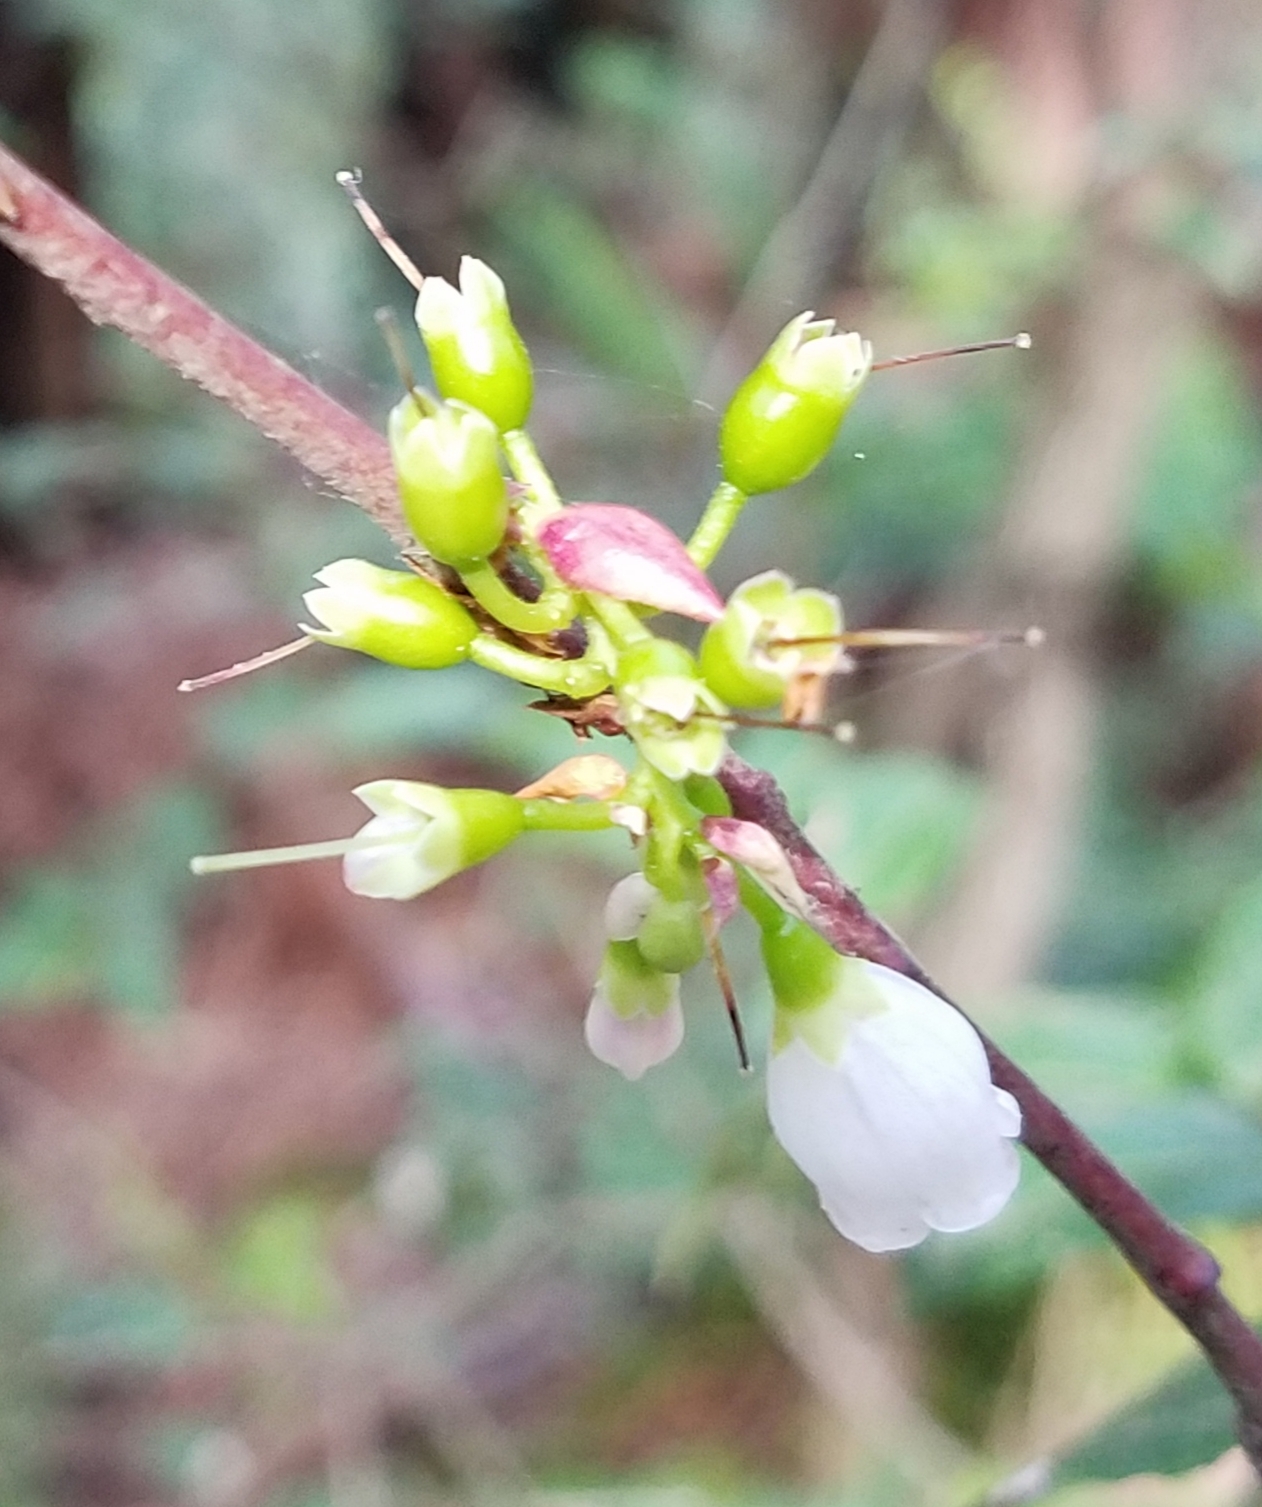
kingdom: Plantae
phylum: Tracheophyta
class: Magnoliopsida
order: Ericales
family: Ericaceae
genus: Vaccinium
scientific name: Vaccinium ovatum
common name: California-huckleberry
